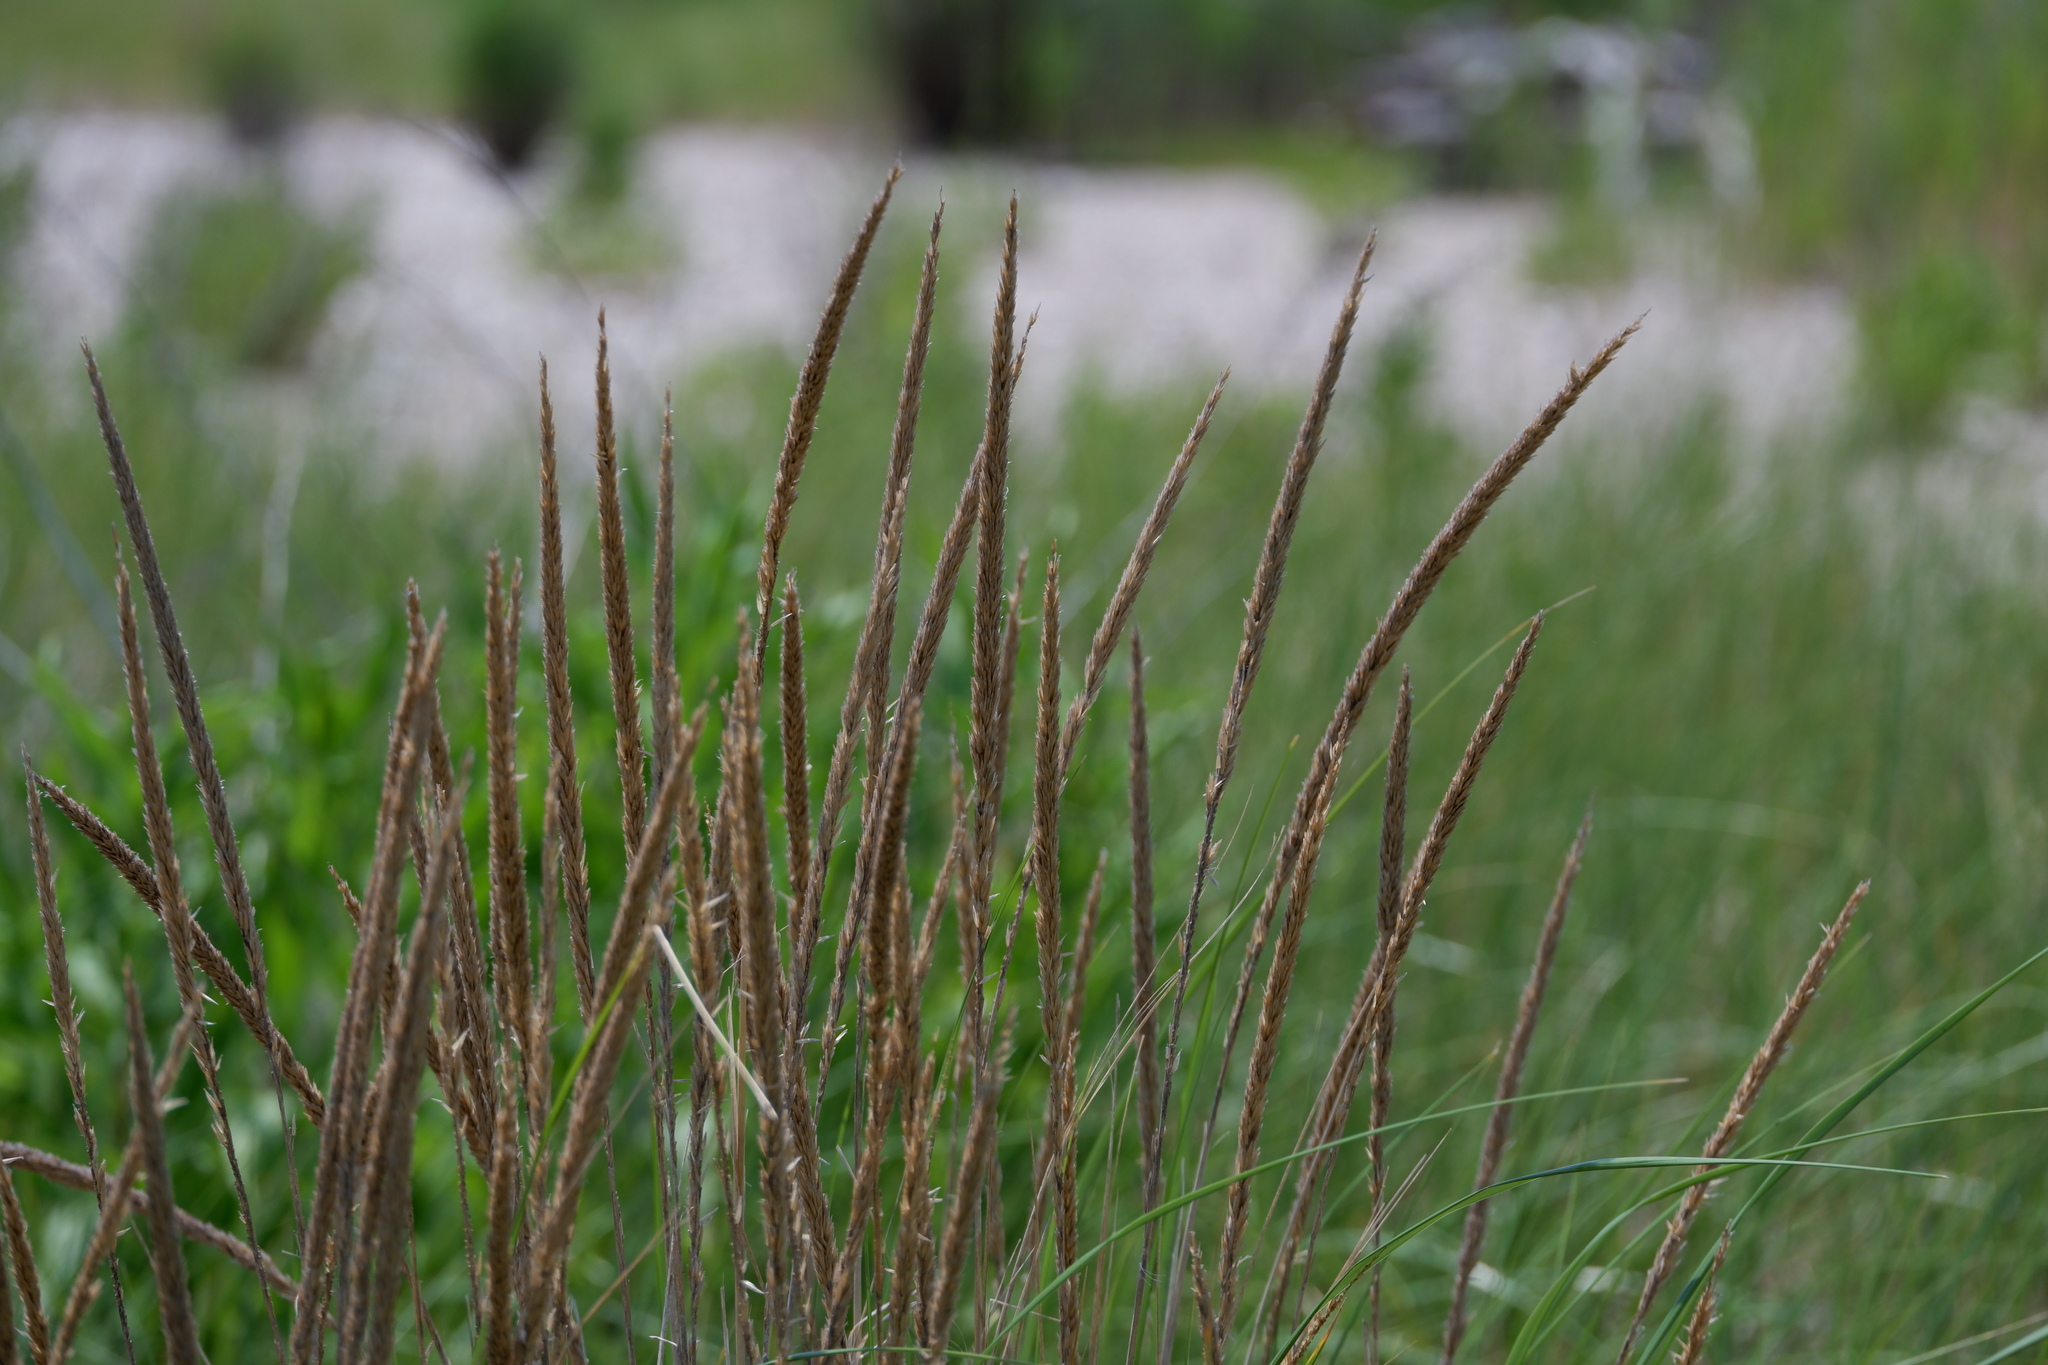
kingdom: Plantae
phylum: Tracheophyta
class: Liliopsida
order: Poales
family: Poaceae
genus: Calamagrostis
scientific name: Calamagrostis breviligulata
